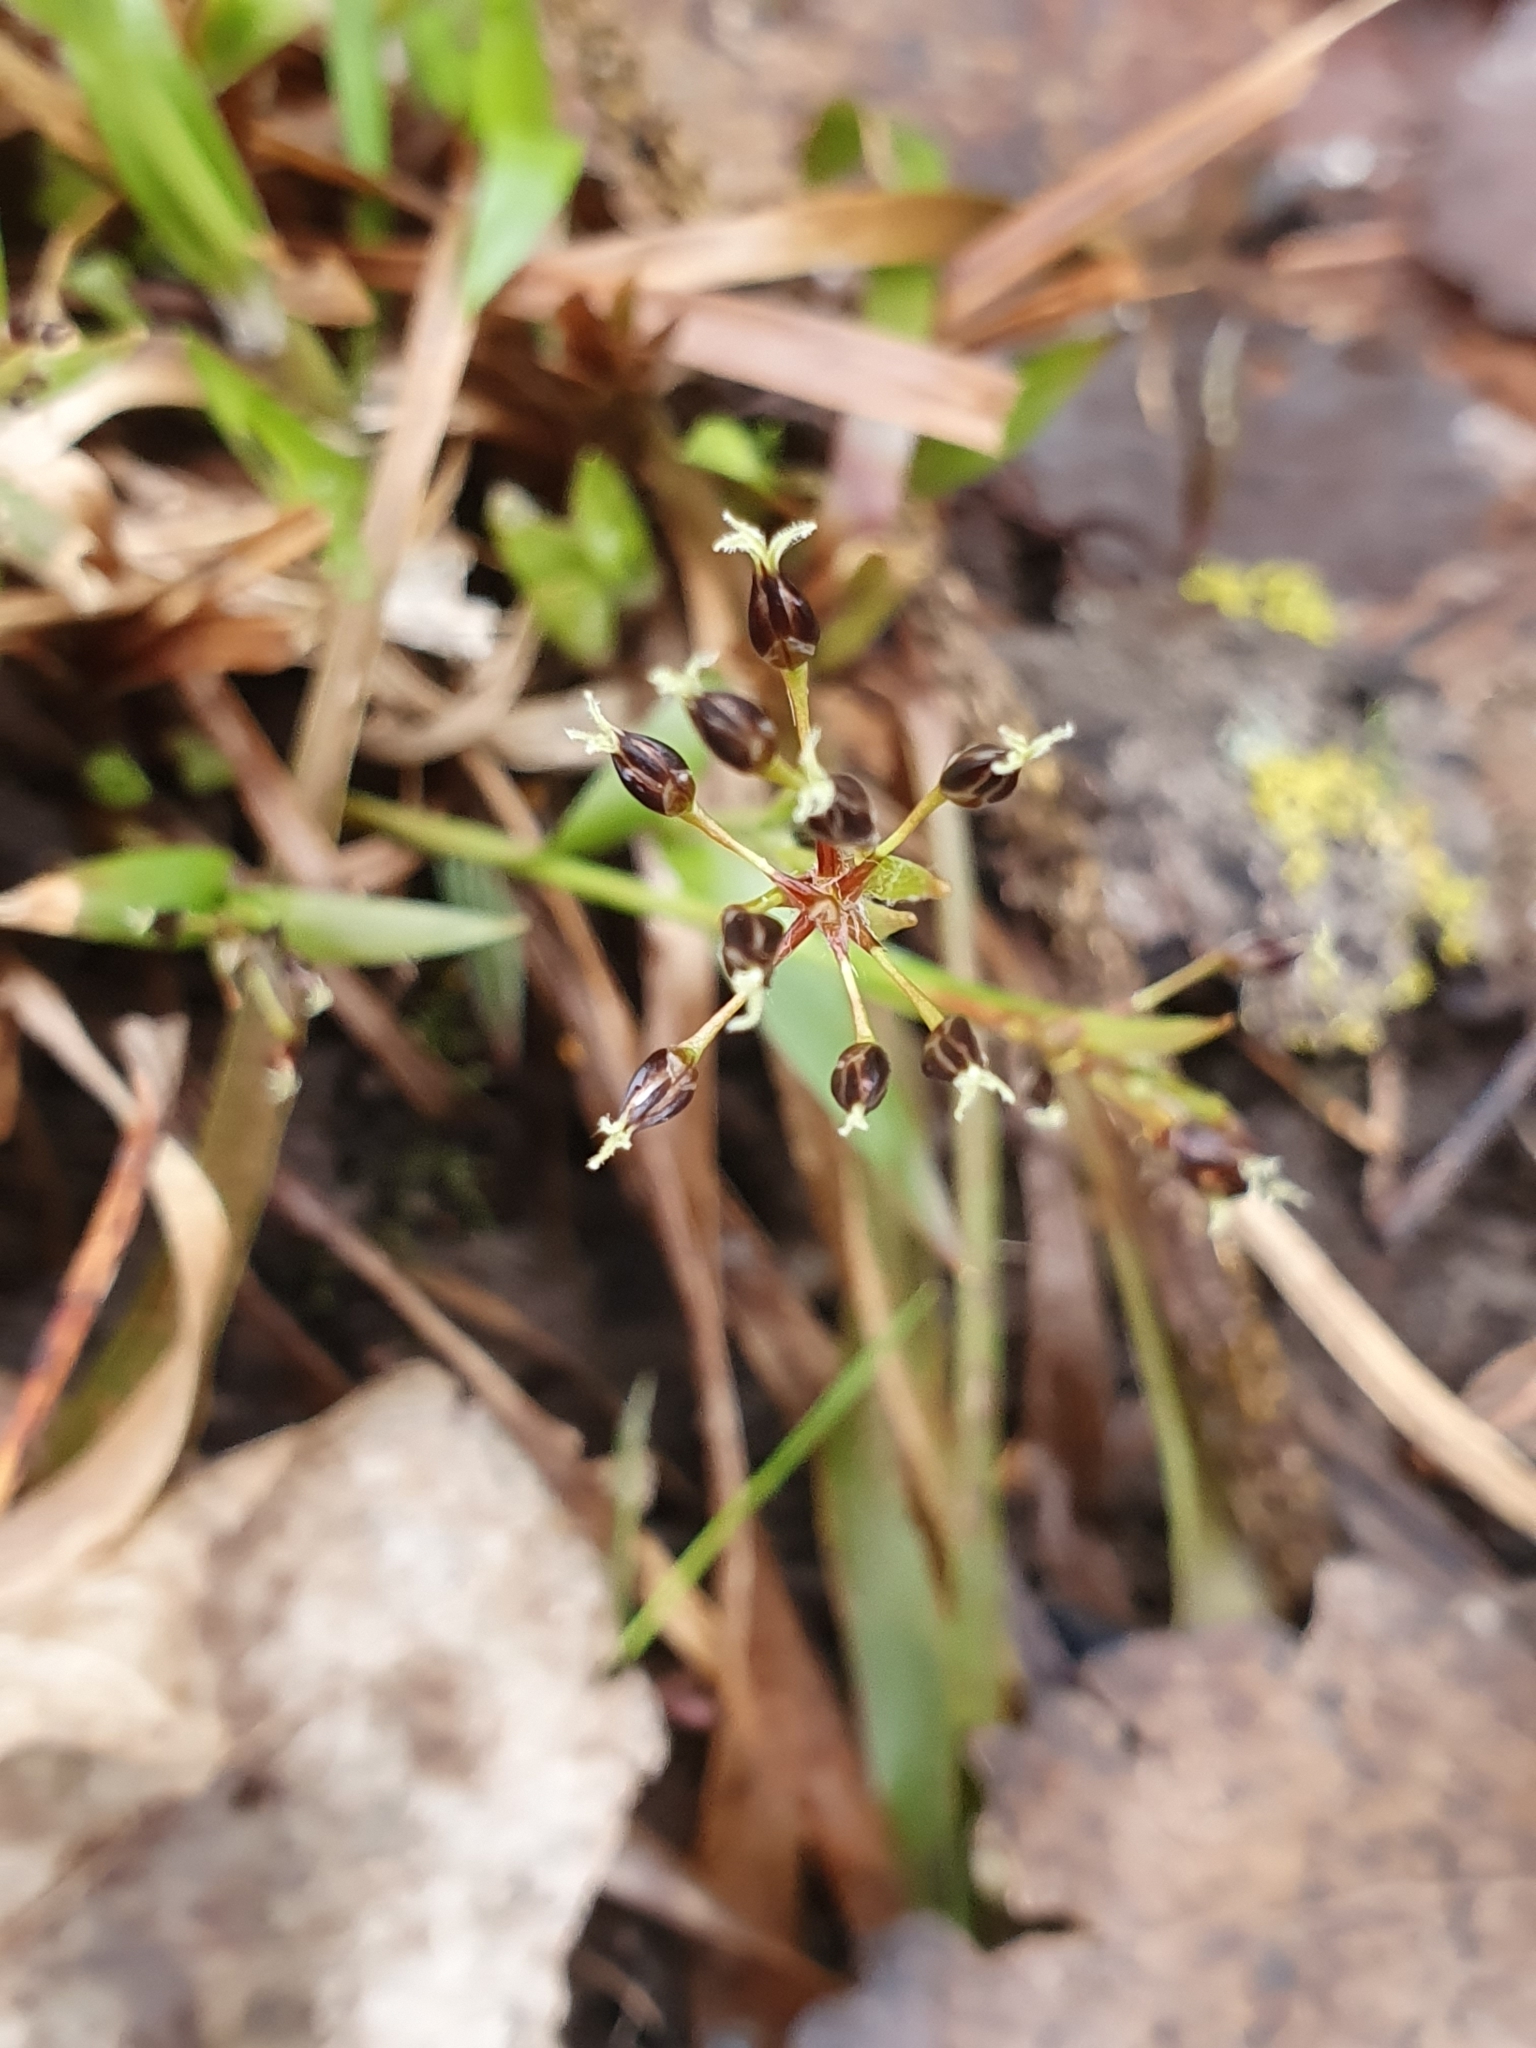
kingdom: Plantae
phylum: Tracheophyta
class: Liliopsida
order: Poales
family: Juncaceae
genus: Luzula
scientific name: Luzula pilosa
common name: Hairy wood-rush
